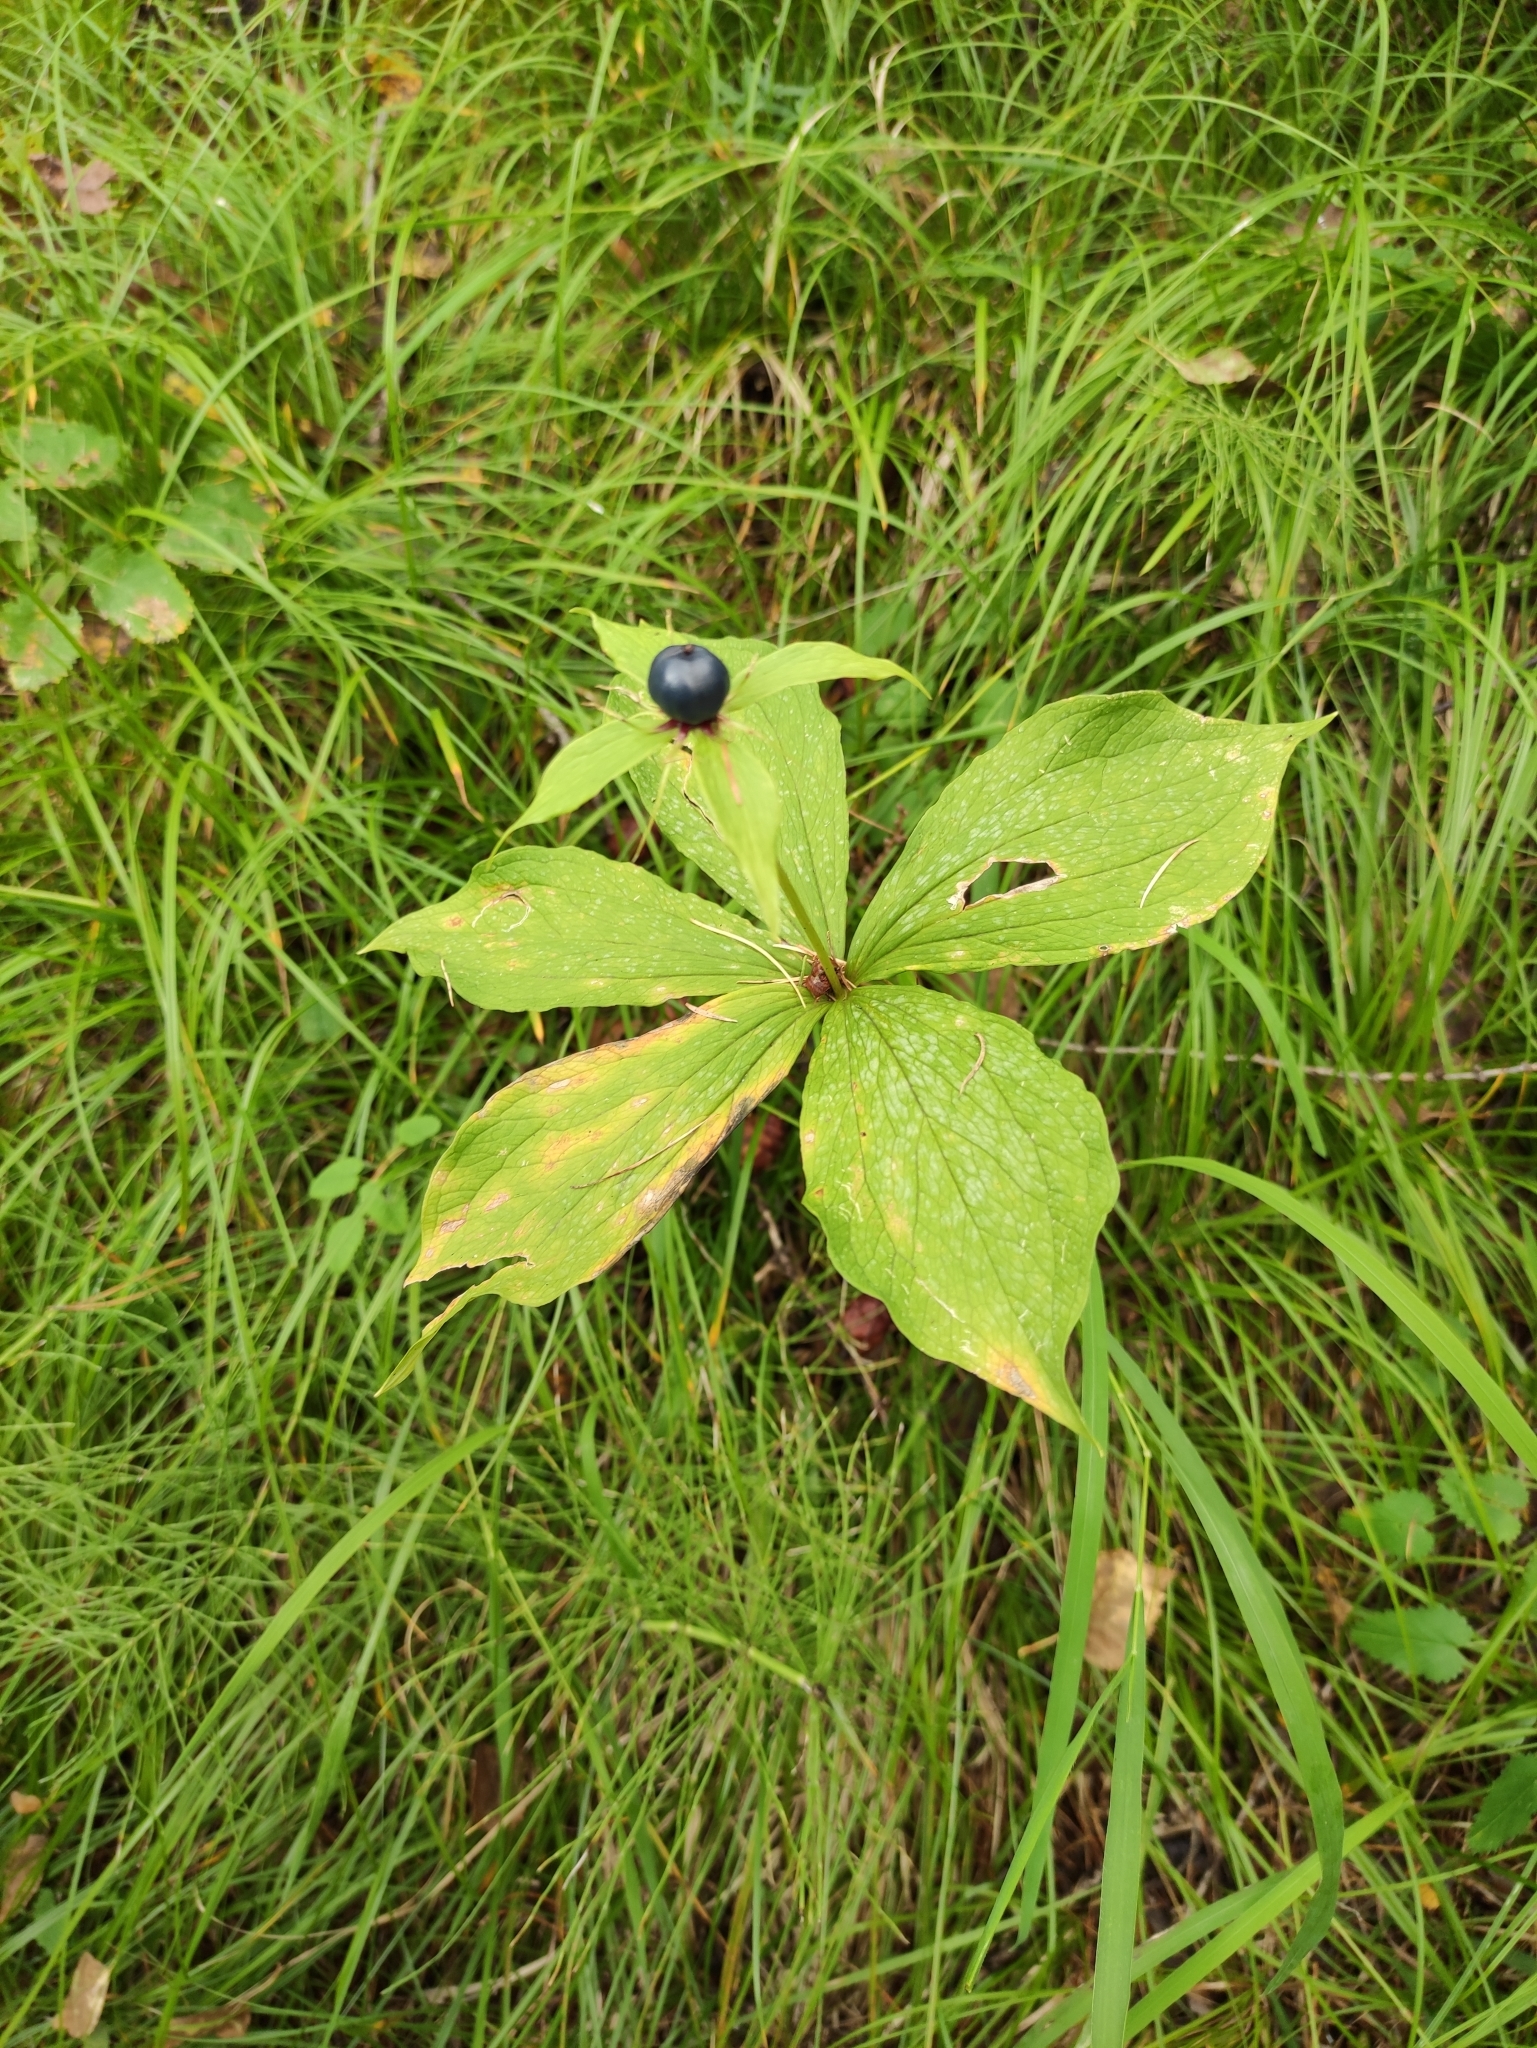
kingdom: Plantae
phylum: Tracheophyta
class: Liliopsida
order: Liliales
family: Melanthiaceae
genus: Paris
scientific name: Paris verticillata
